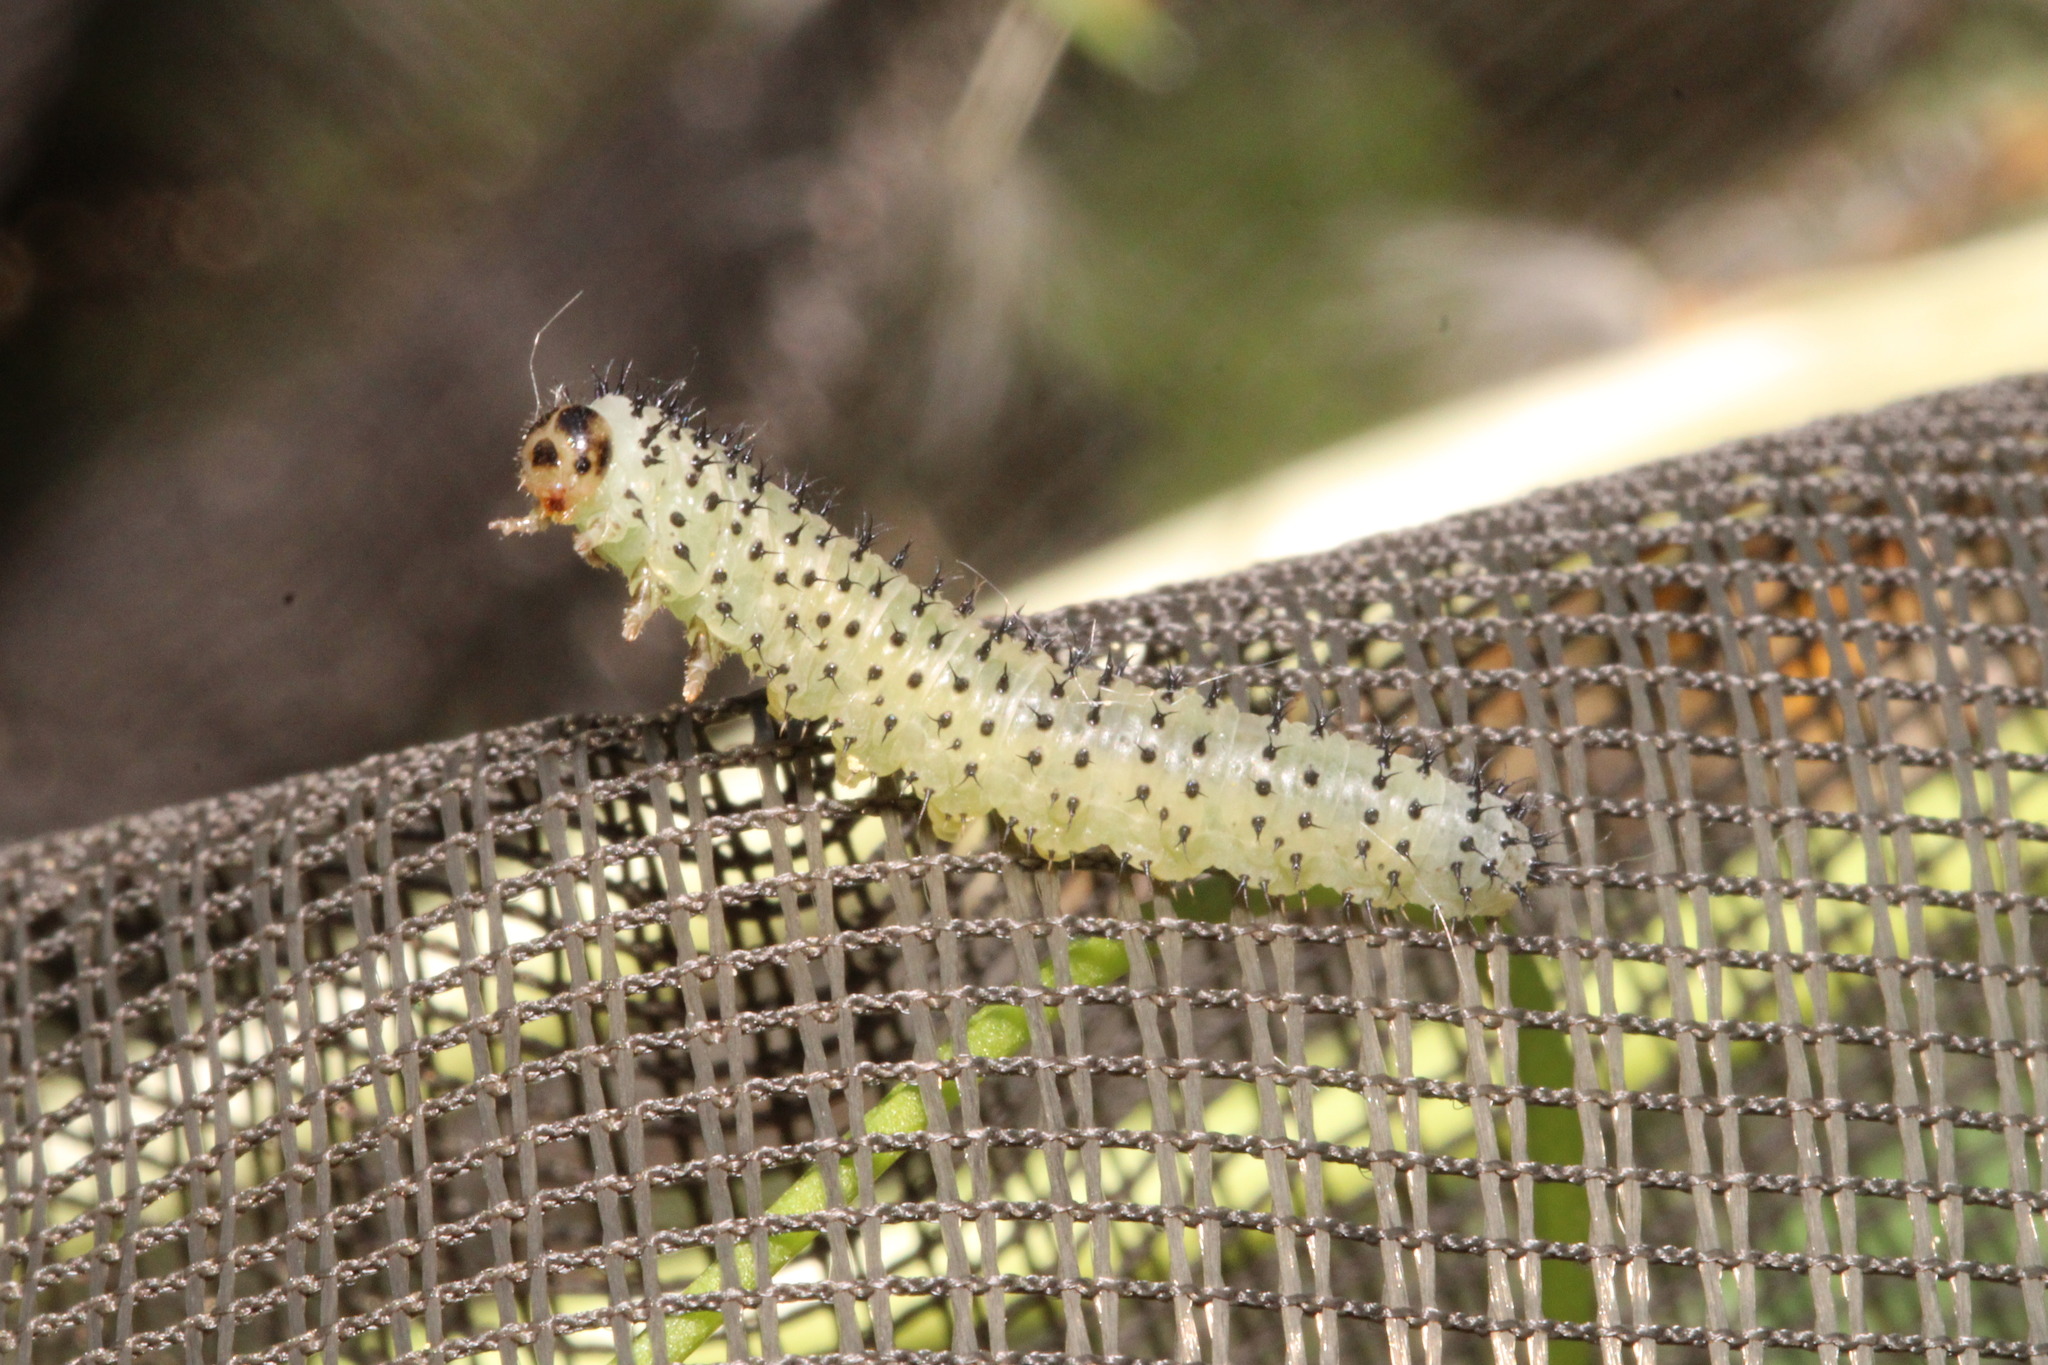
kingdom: Animalia
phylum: Arthropoda
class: Insecta
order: Hymenoptera
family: Tenthredinidae
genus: Periclista
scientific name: Periclista albida
